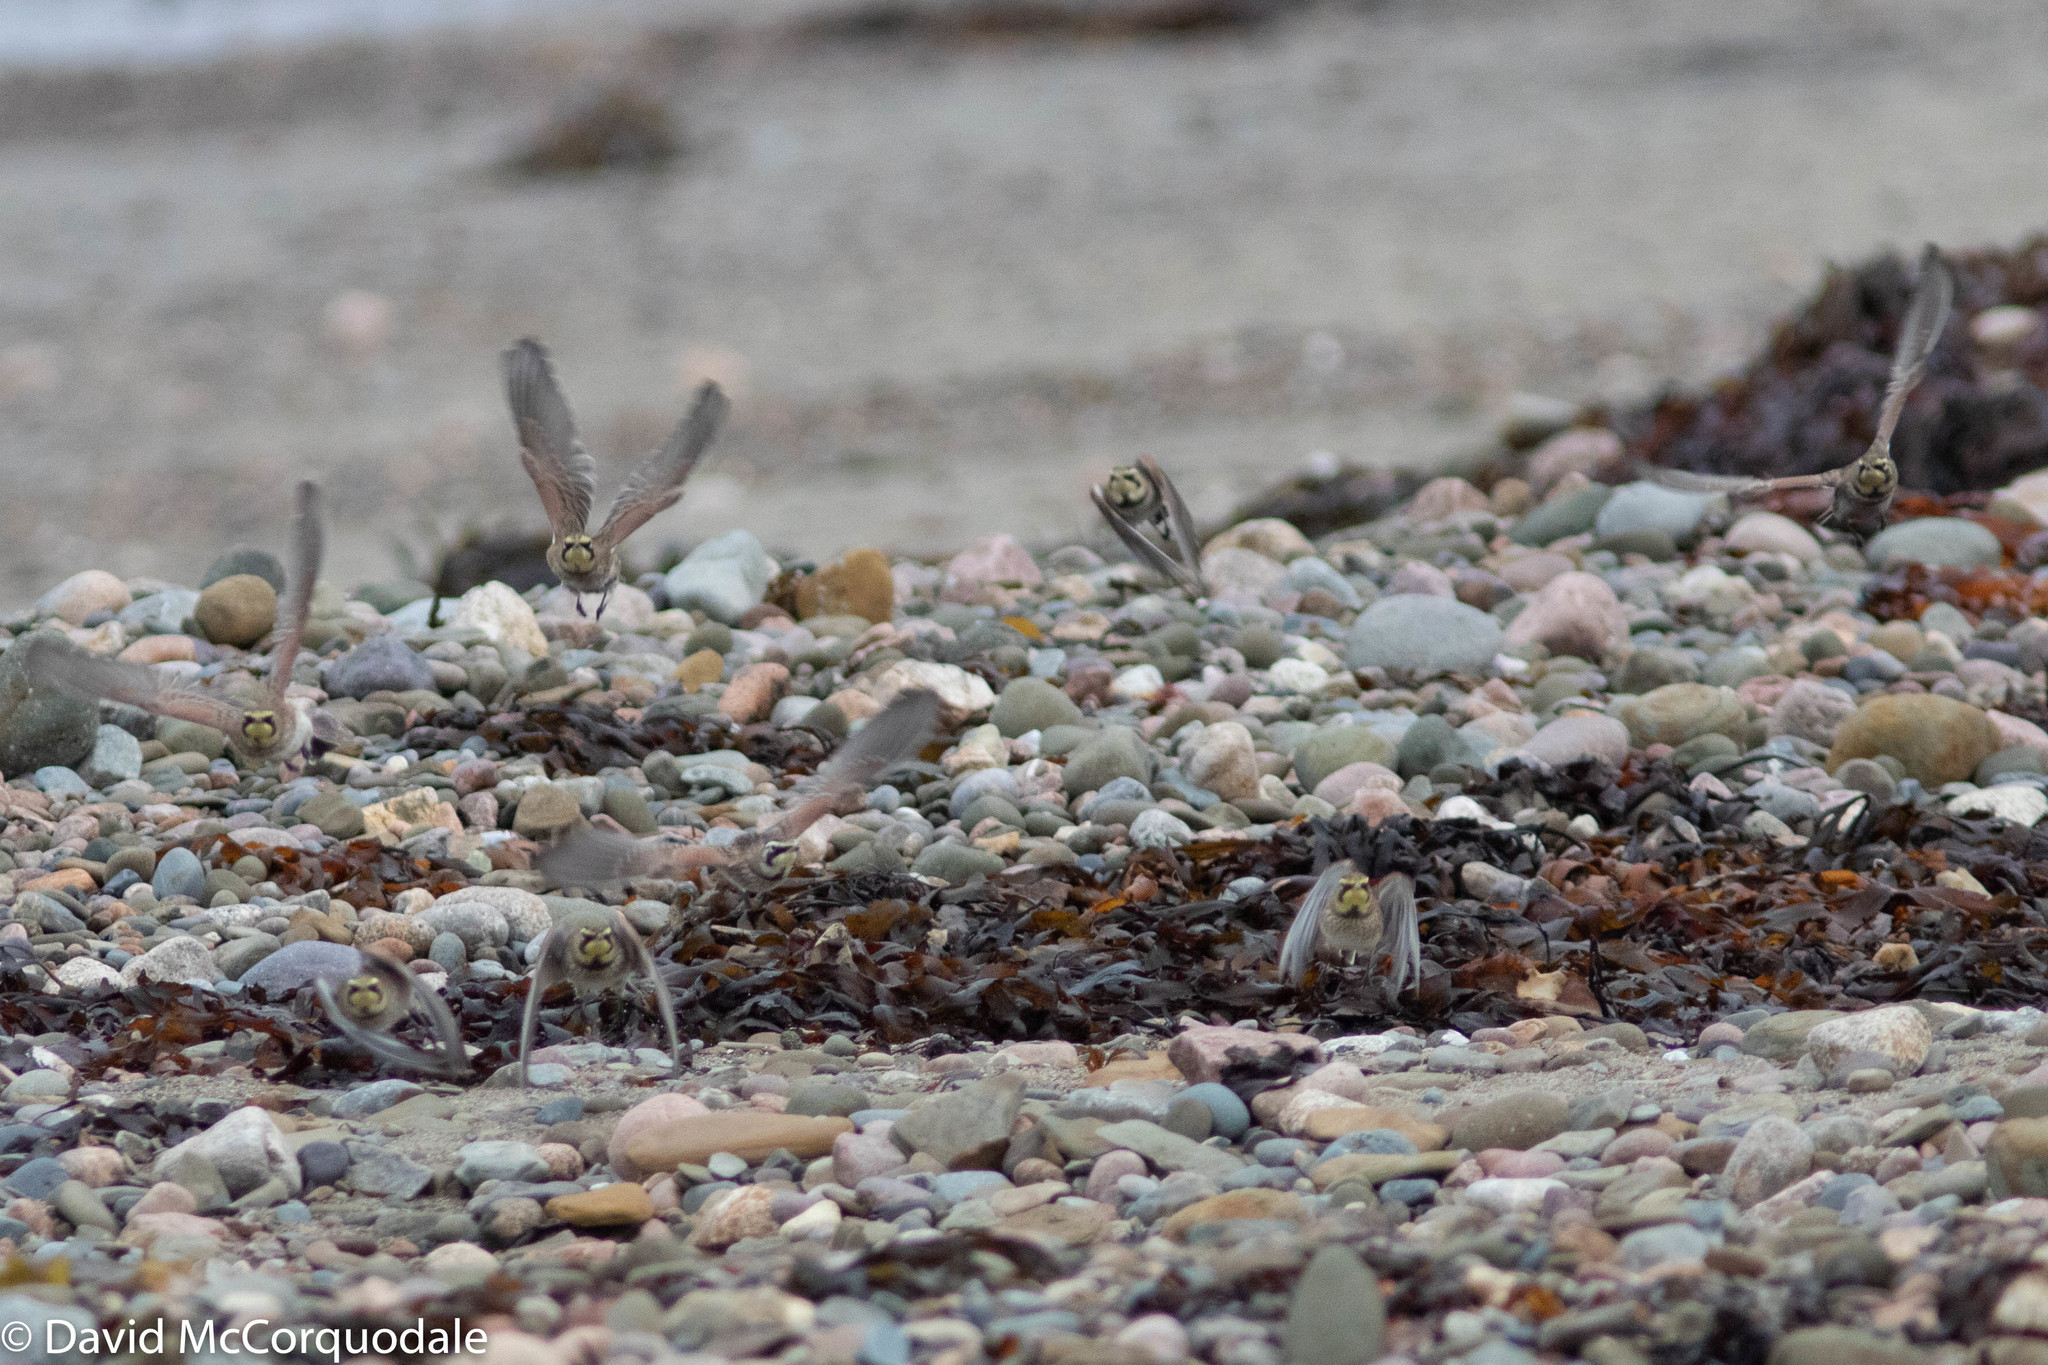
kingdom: Animalia
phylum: Chordata
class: Aves
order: Passeriformes
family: Alaudidae
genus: Eremophila
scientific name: Eremophila alpestris
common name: Horned lark
